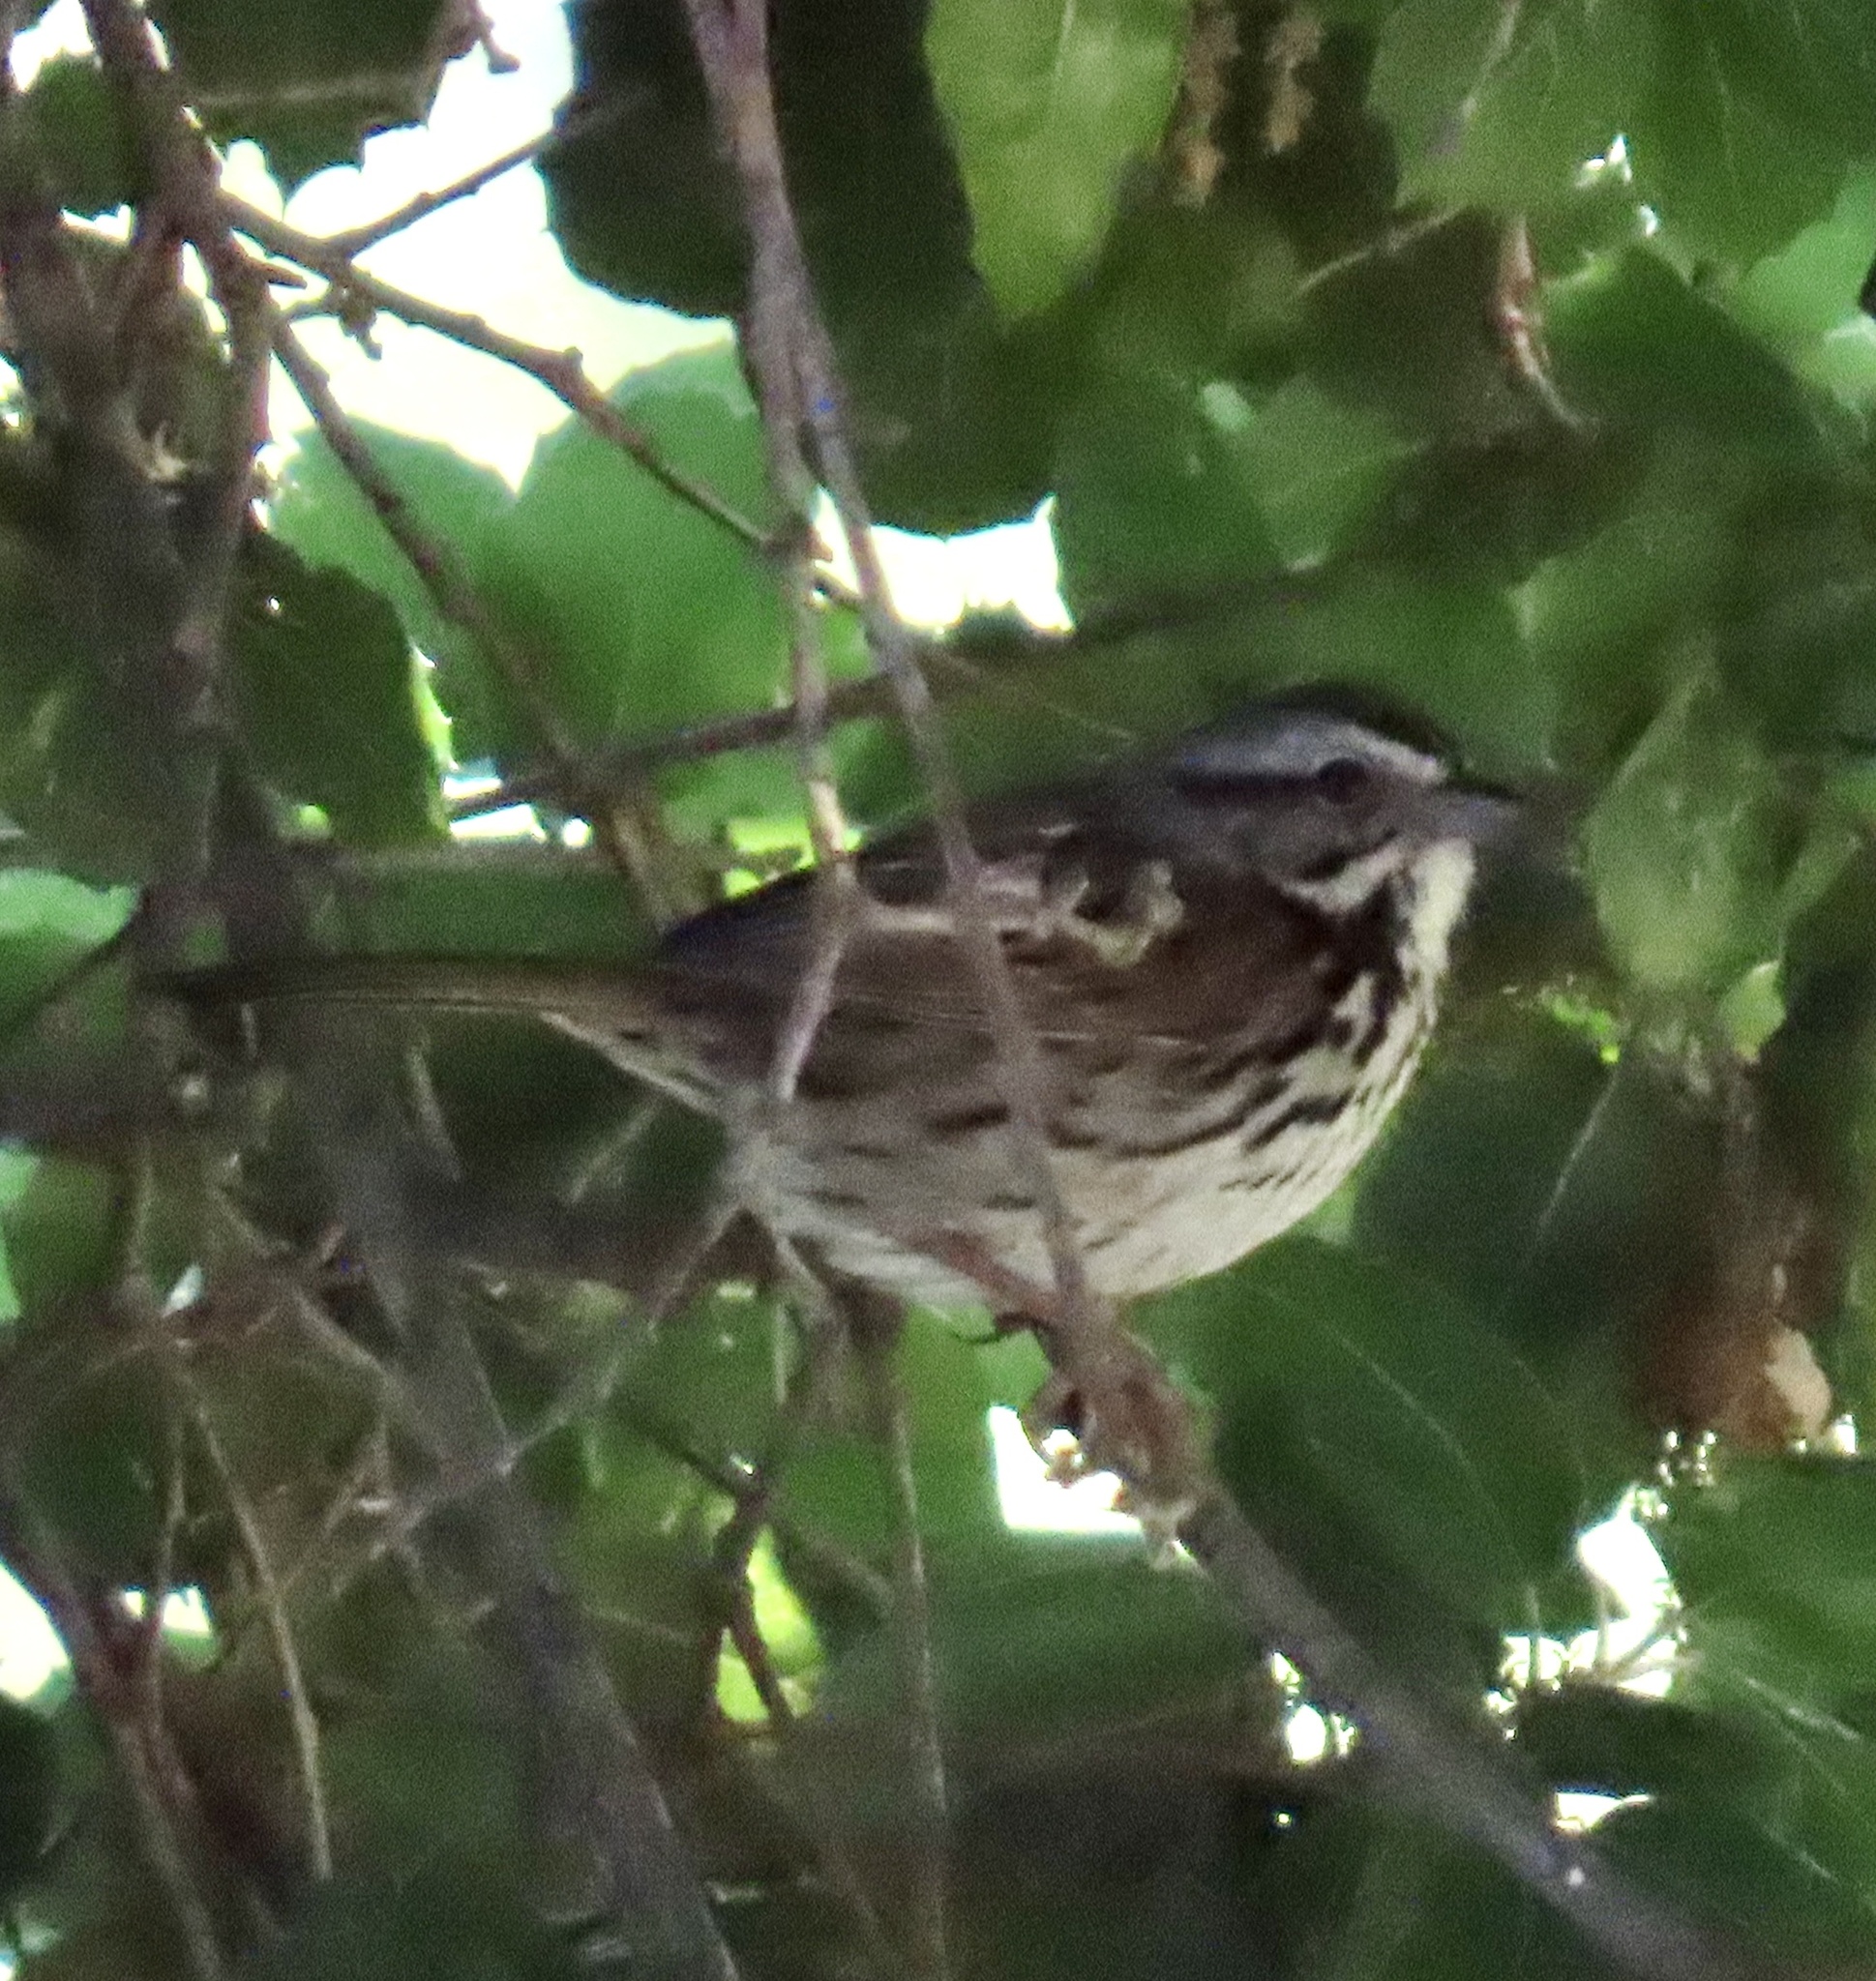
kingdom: Animalia
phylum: Chordata
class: Aves
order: Passeriformes
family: Passerellidae
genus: Melospiza
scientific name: Melospiza melodia
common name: Song sparrow
